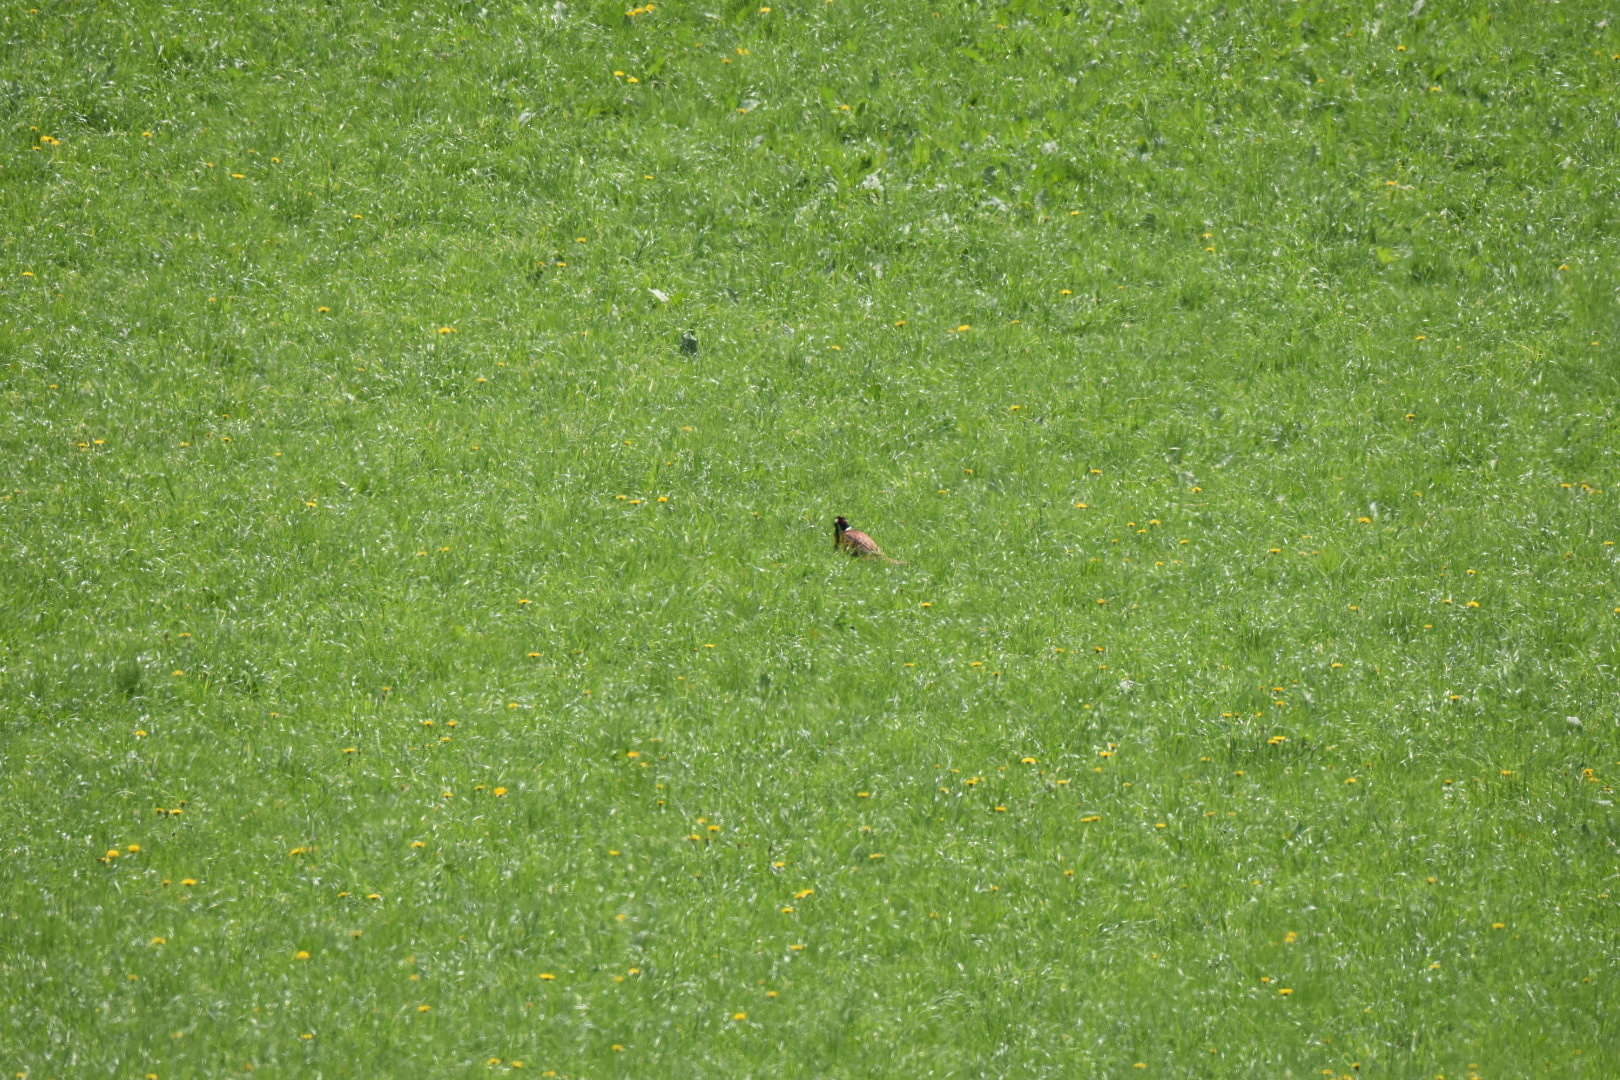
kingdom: Animalia
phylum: Chordata
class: Aves
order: Galliformes
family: Phasianidae
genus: Phasianus
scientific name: Phasianus colchicus
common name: Common pheasant
